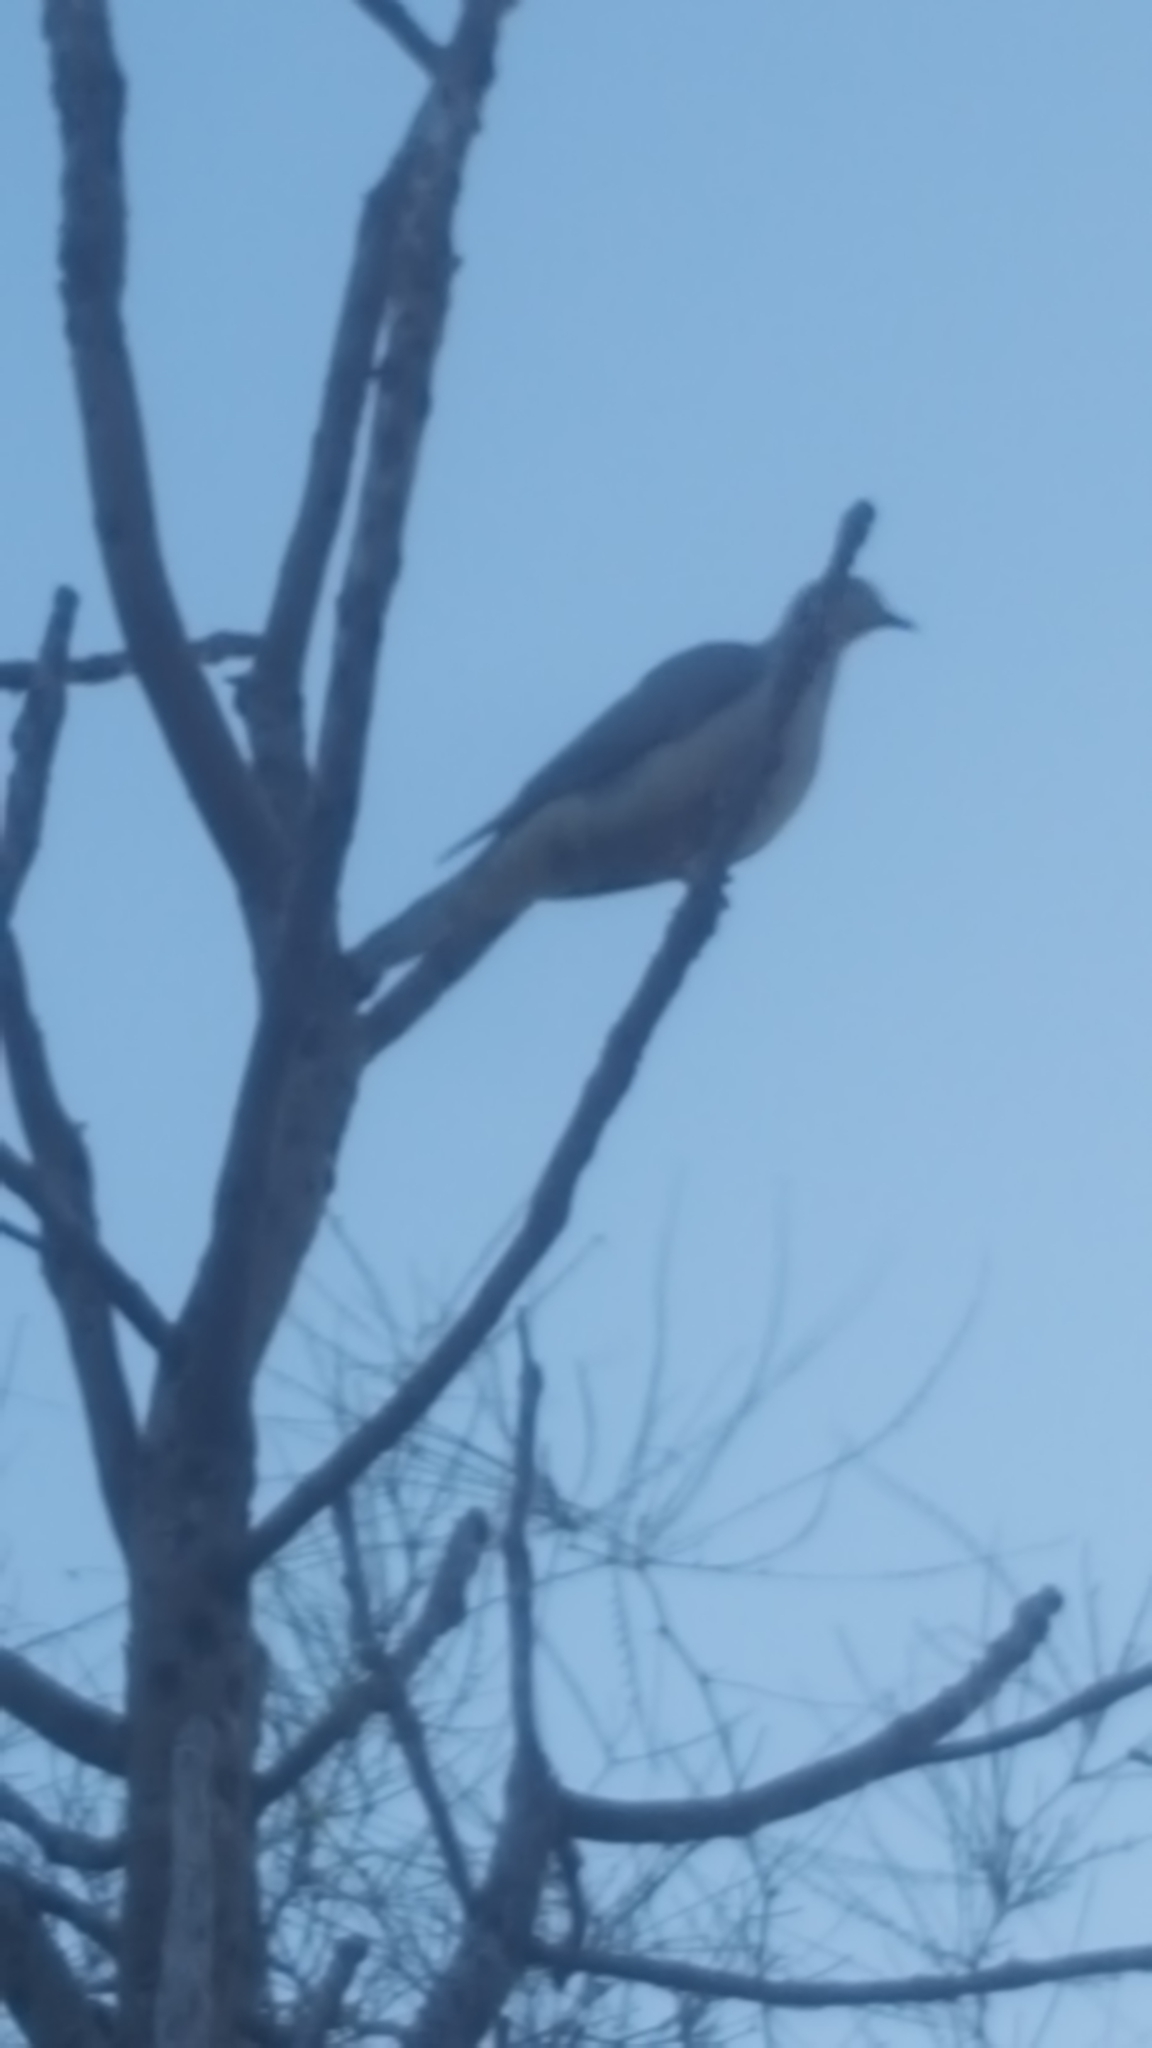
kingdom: Animalia
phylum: Chordata
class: Aves
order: Columbiformes
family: Columbidae
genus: Zenaida
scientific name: Zenaida macroura
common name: Mourning dove
